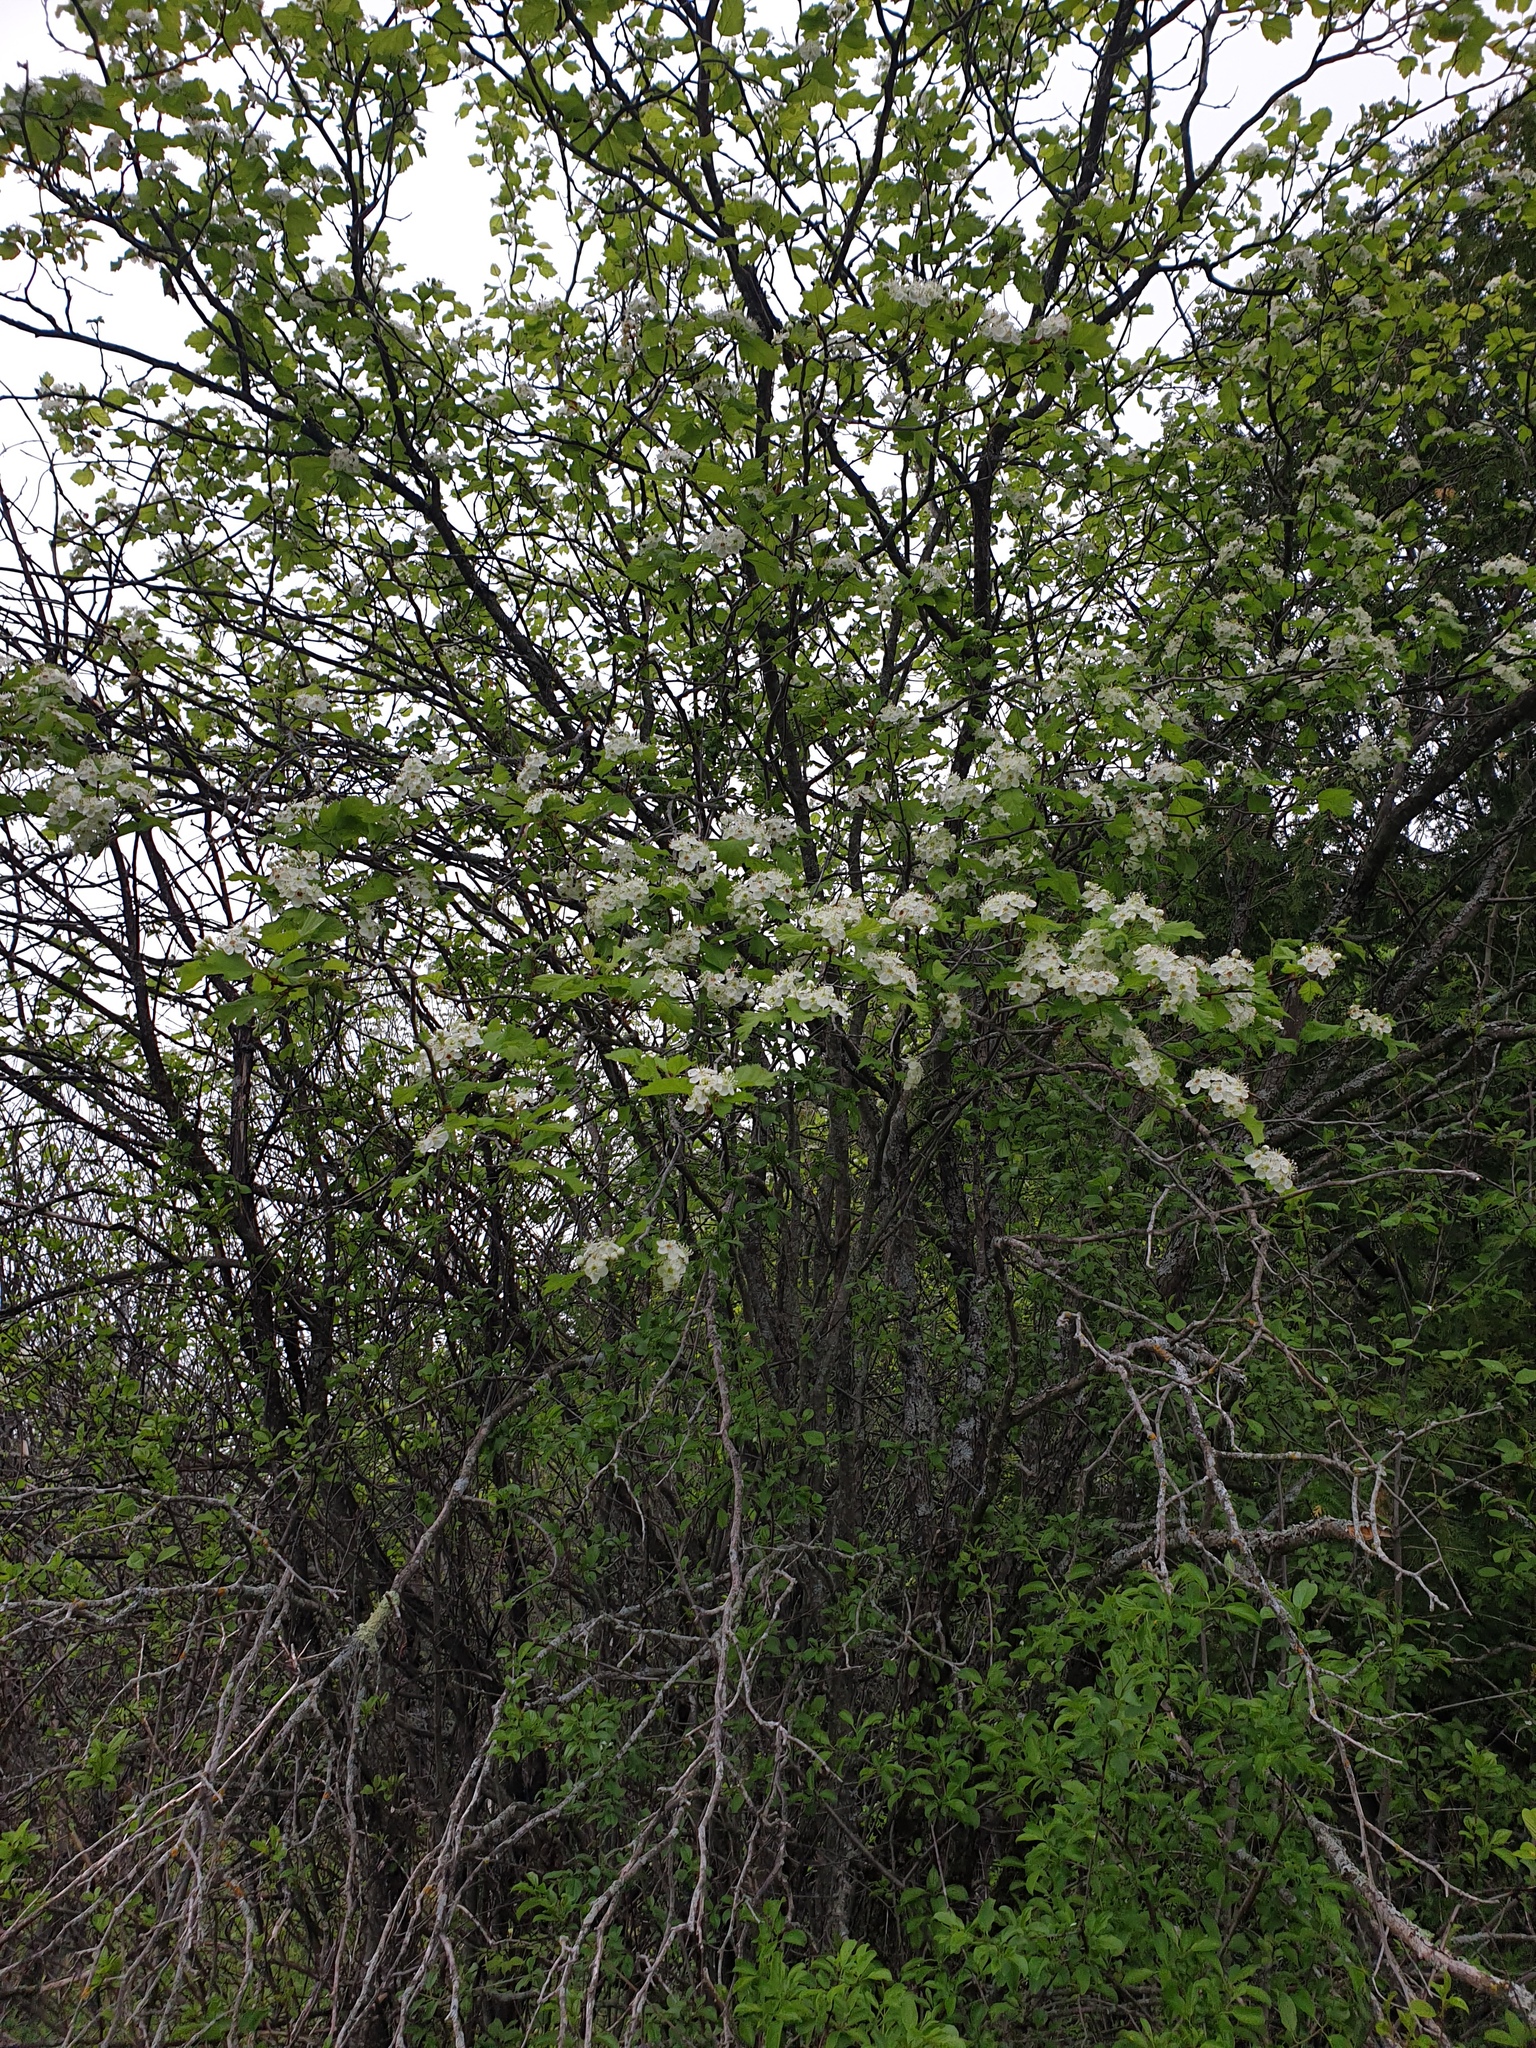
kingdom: Plantae
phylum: Tracheophyta
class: Magnoliopsida
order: Rosales
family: Rosaceae
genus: Crataegus
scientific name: Crataegus submollis
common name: Hairy cockspurthorn
